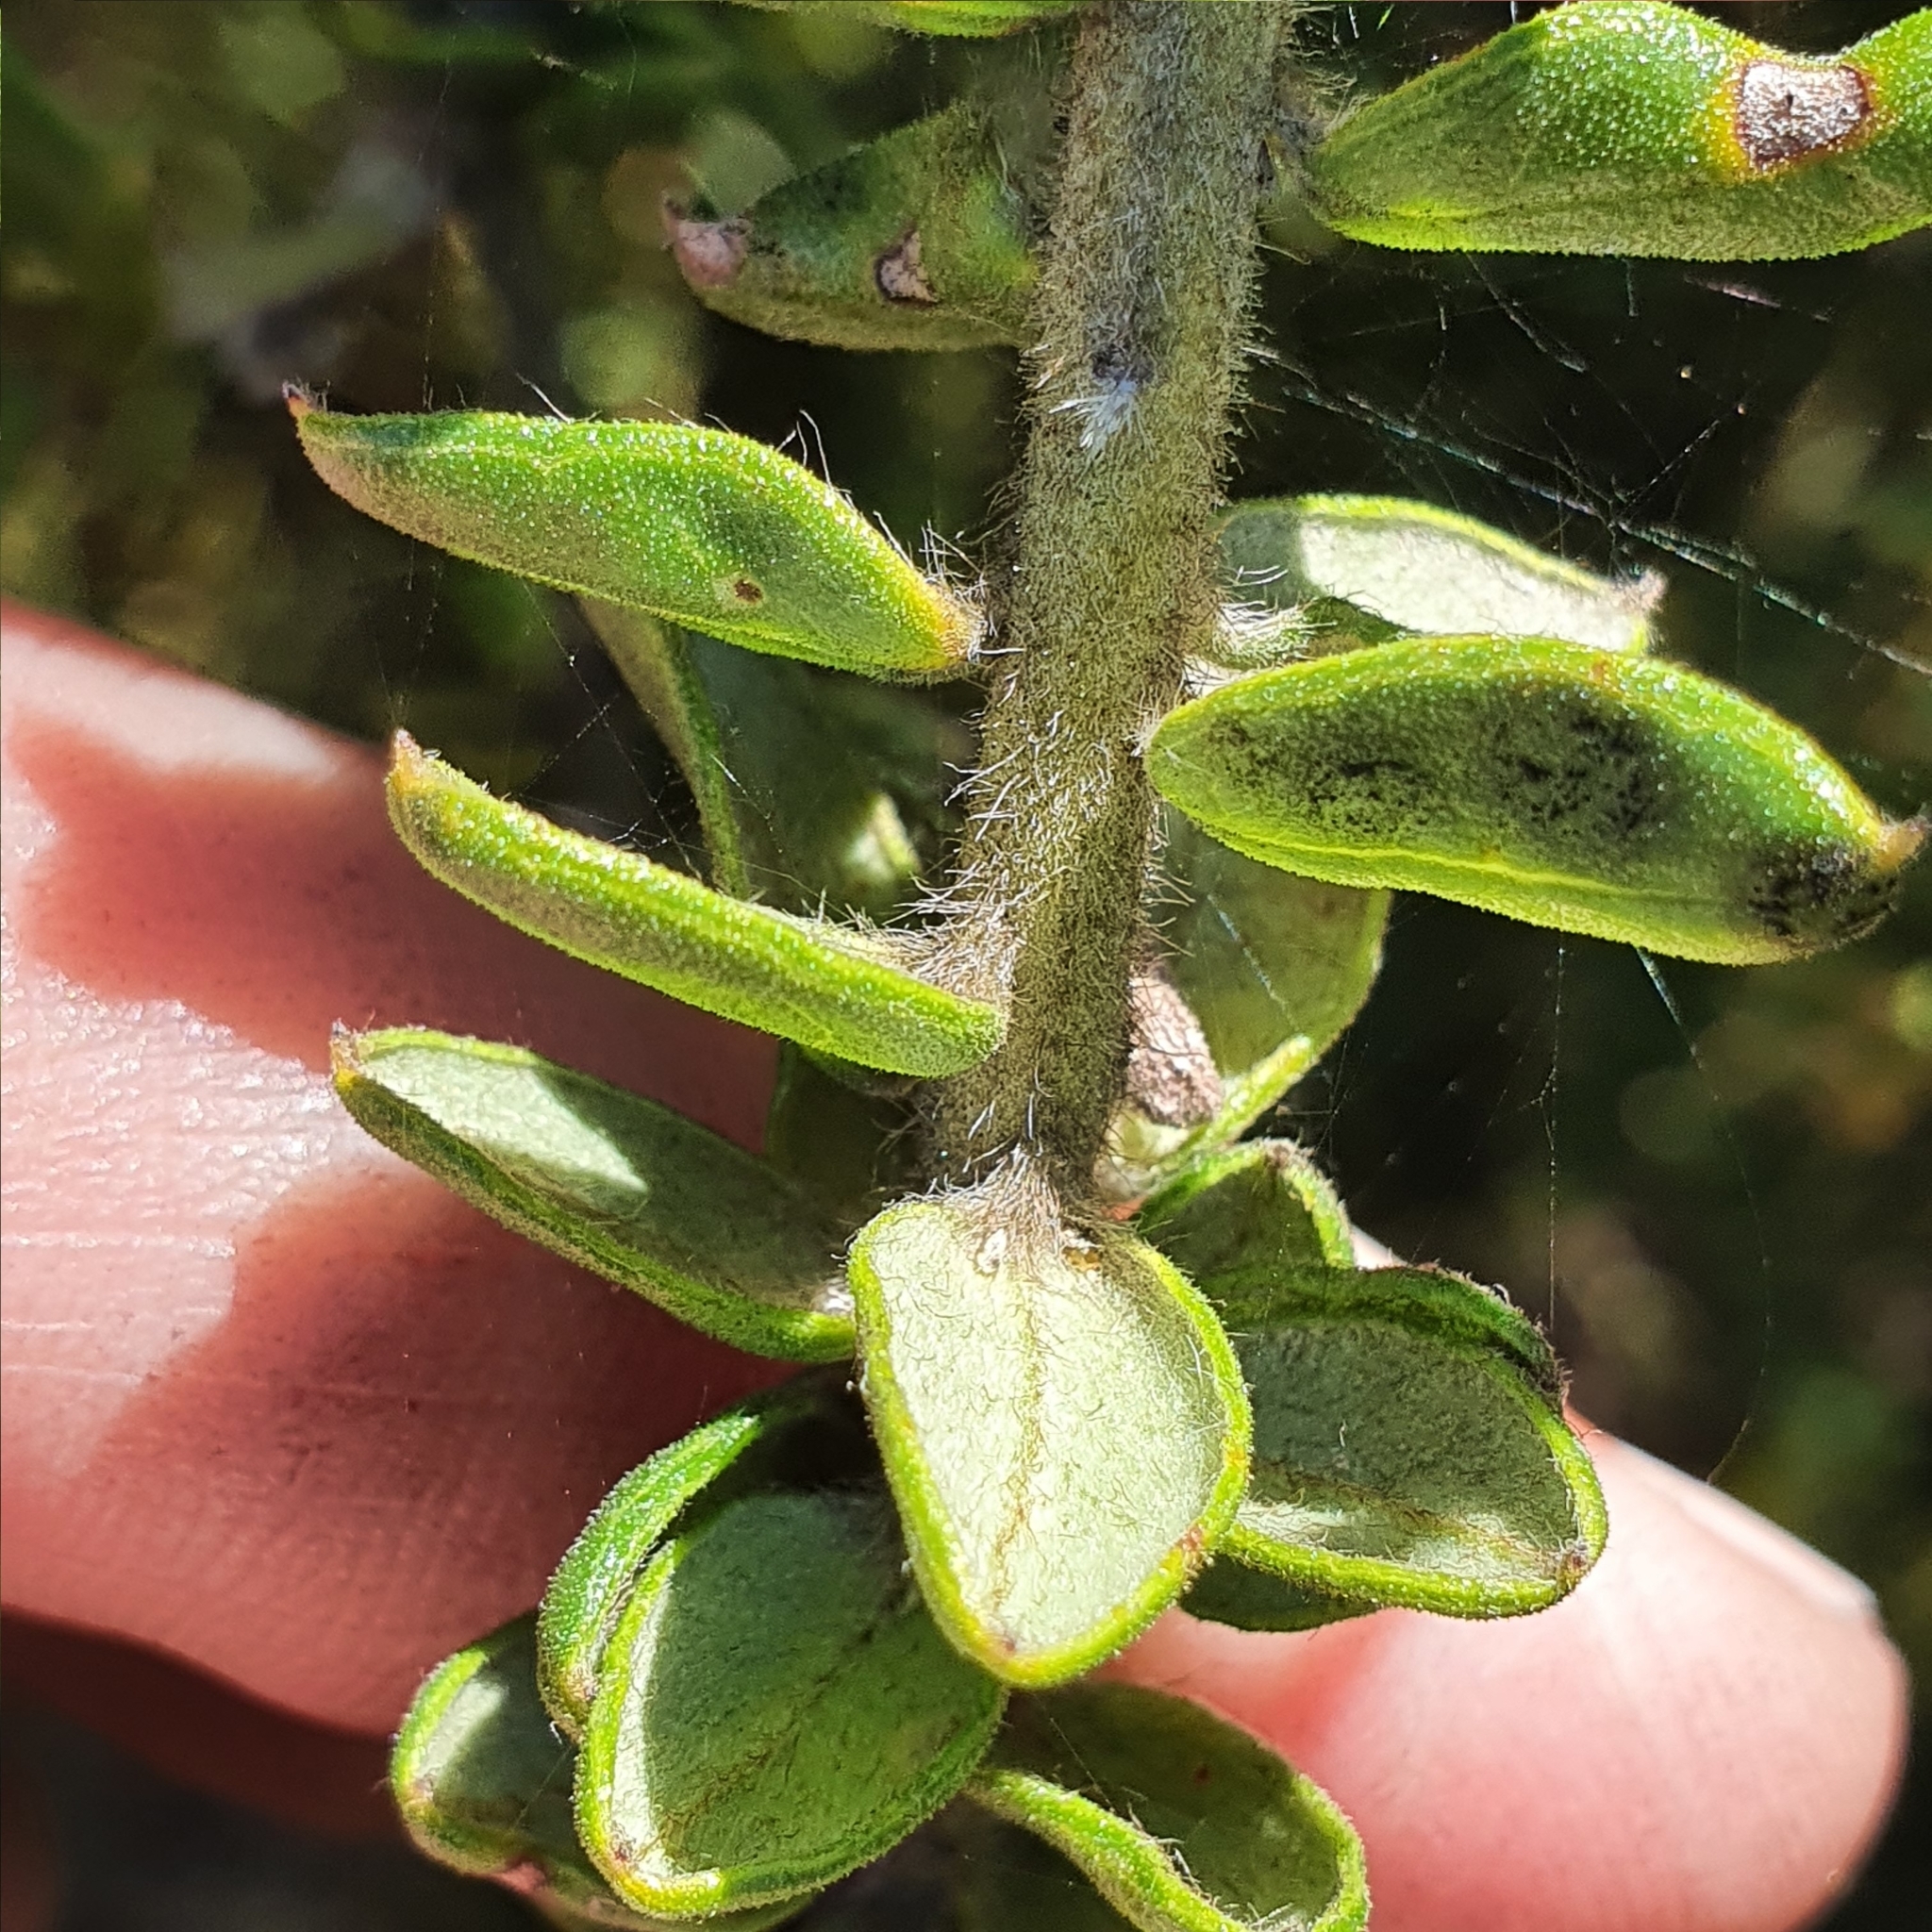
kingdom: Plantae
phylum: Tracheophyta
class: Magnoliopsida
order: Proteales
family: Proteaceae
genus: Grevillea
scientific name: Grevillea buxifolia
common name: Grey spiderflower
